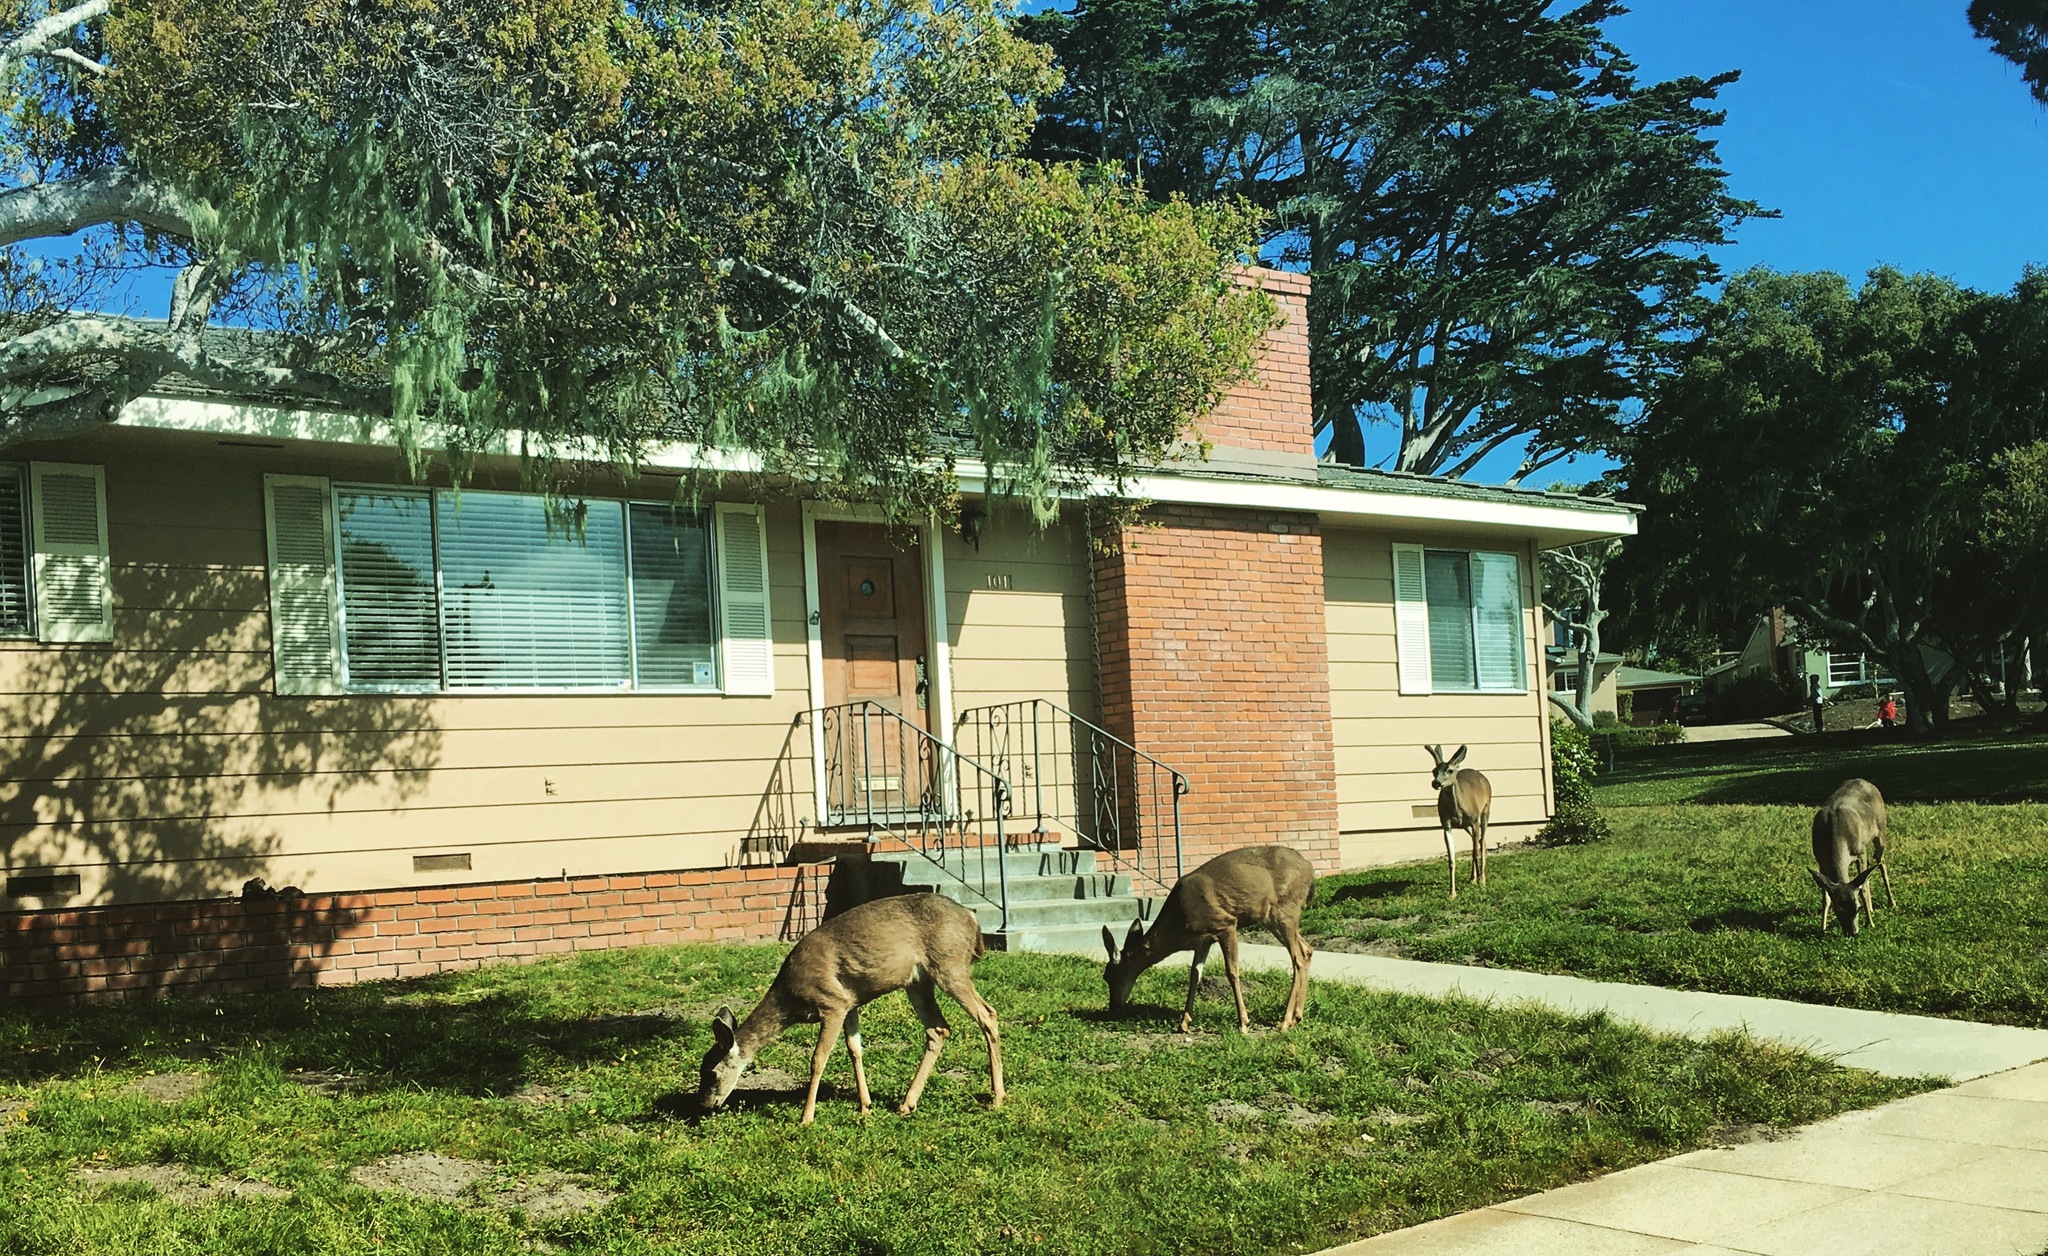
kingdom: Animalia
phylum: Chordata
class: Mammalia
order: Artiodactyla
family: Cervidae
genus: Odocoileus
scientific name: Odocoileus hemionus
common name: Mule deer
